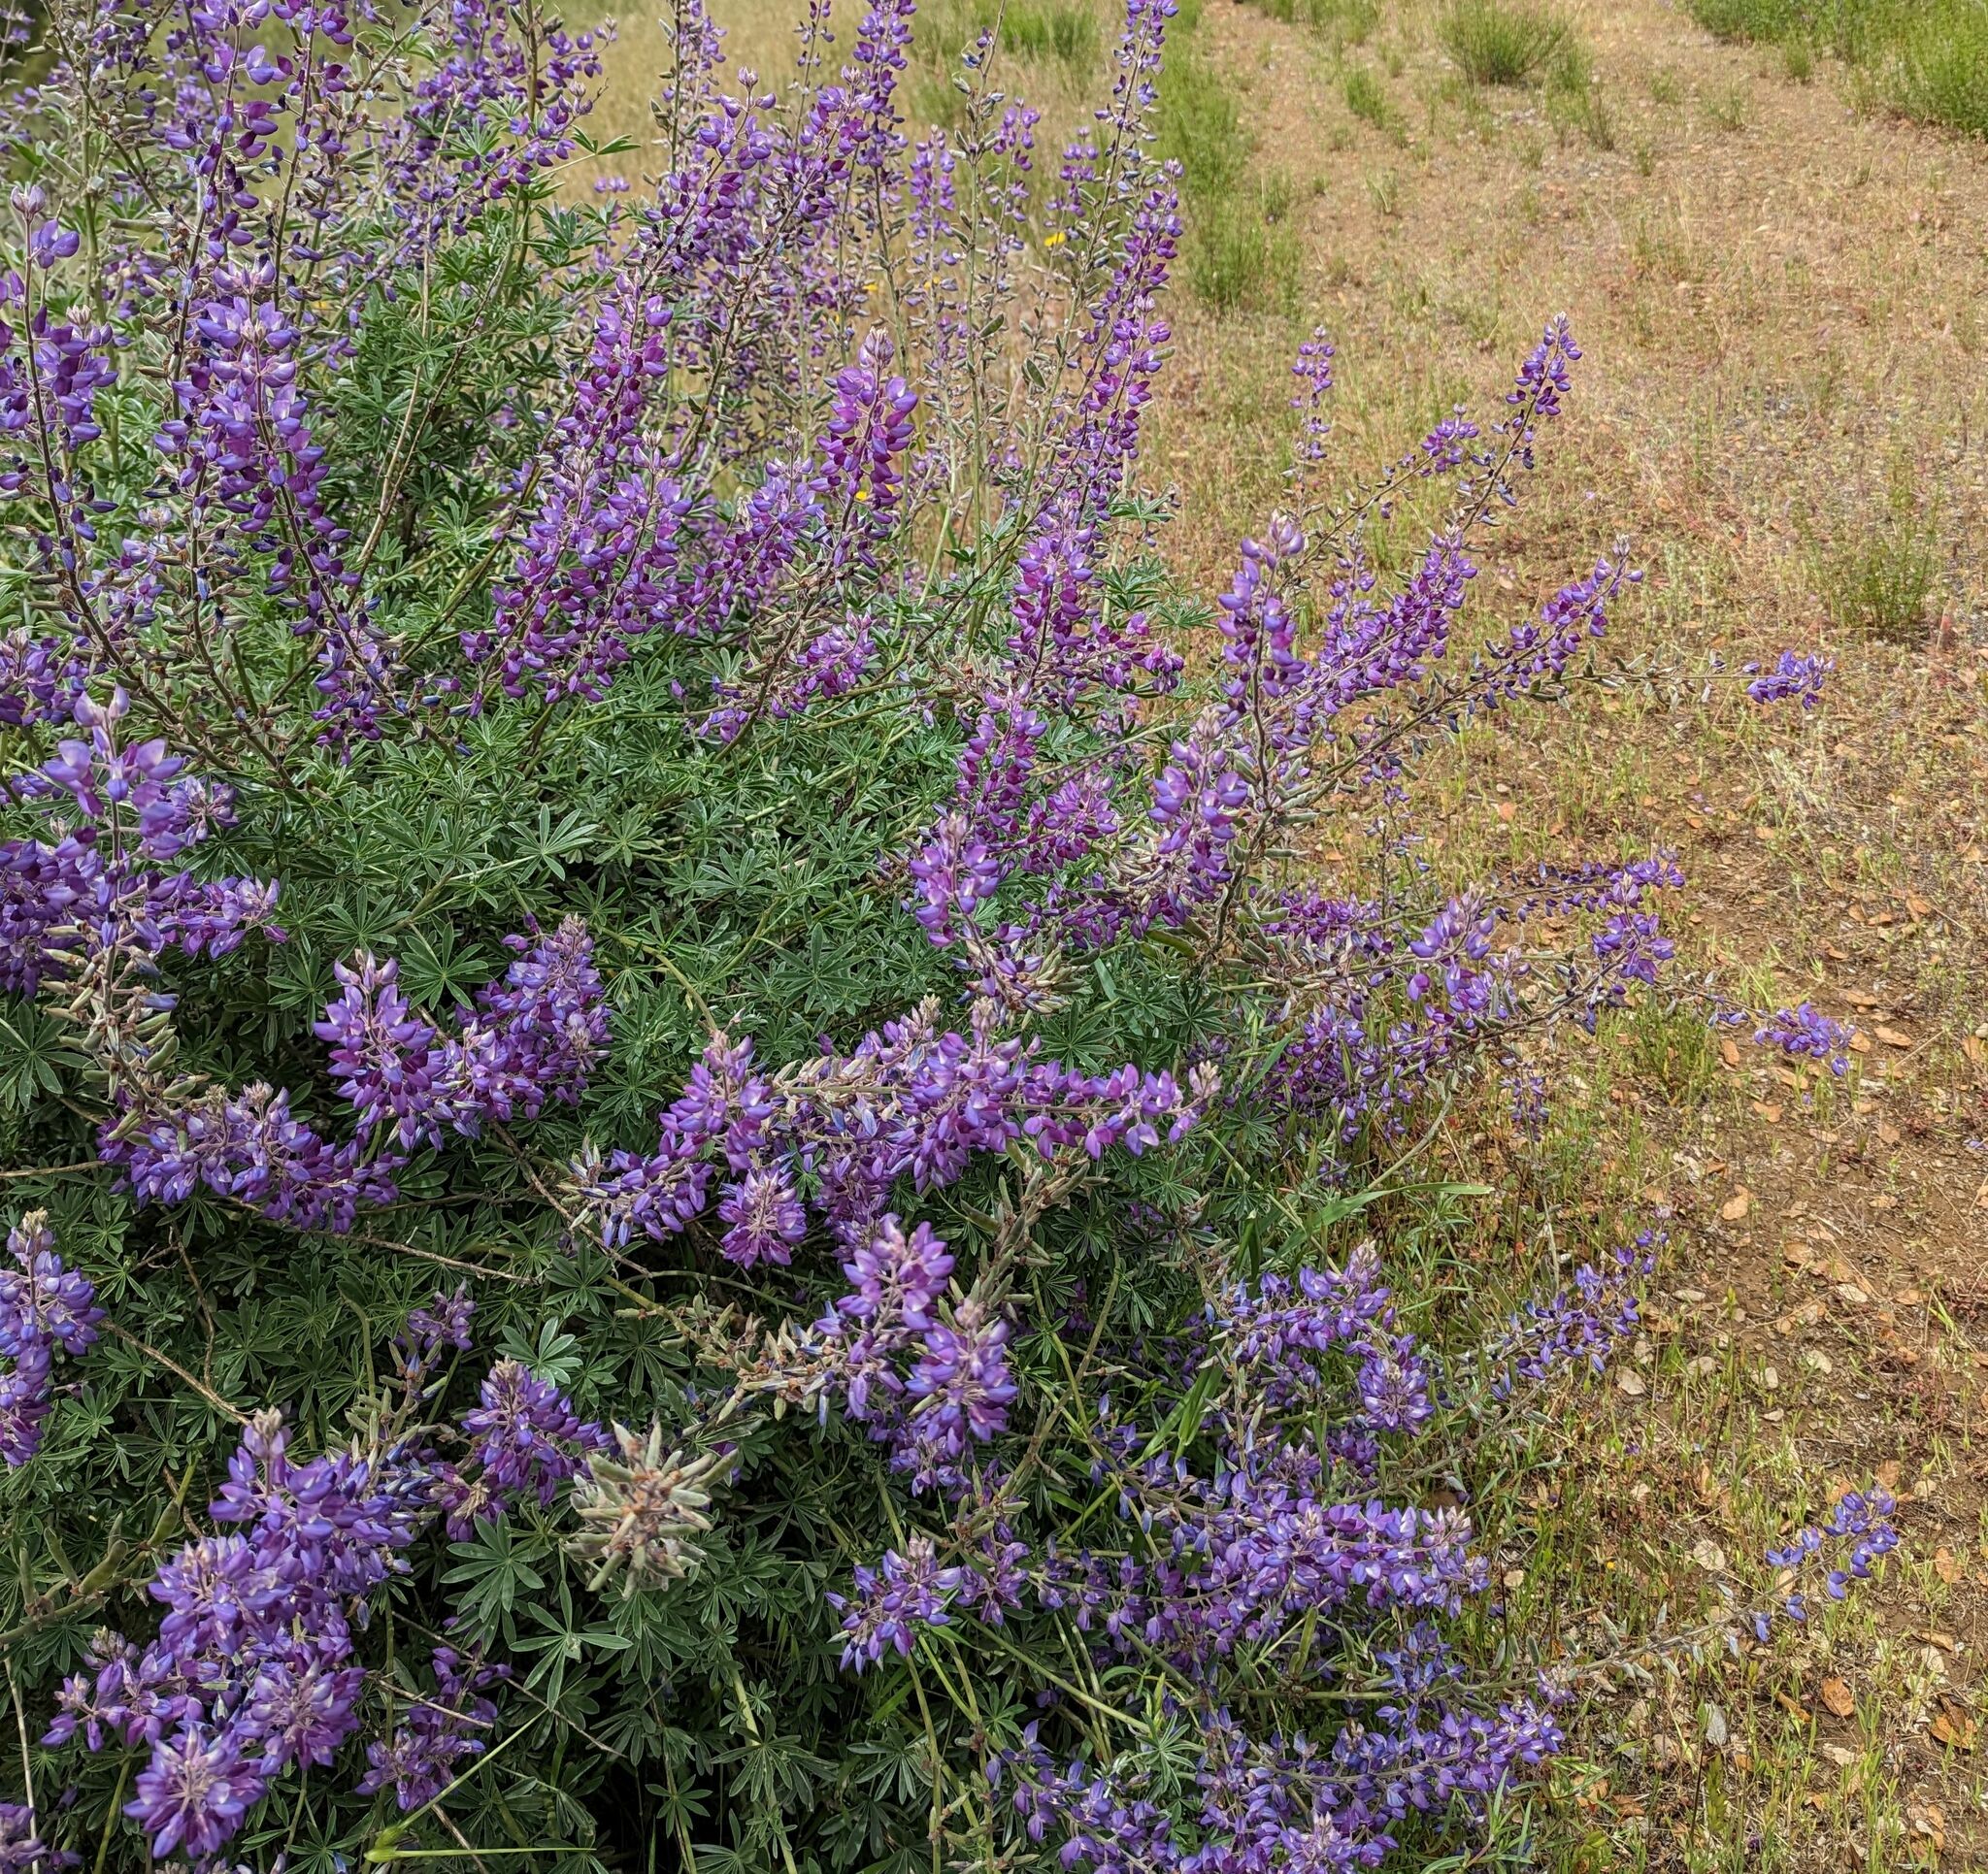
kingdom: Plantae
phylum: Tracheophyta
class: Magnoliopsida
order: Fabales
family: Fabaceae
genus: Lupinus
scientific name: Lupinus albifrons
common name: Foothill lupine
